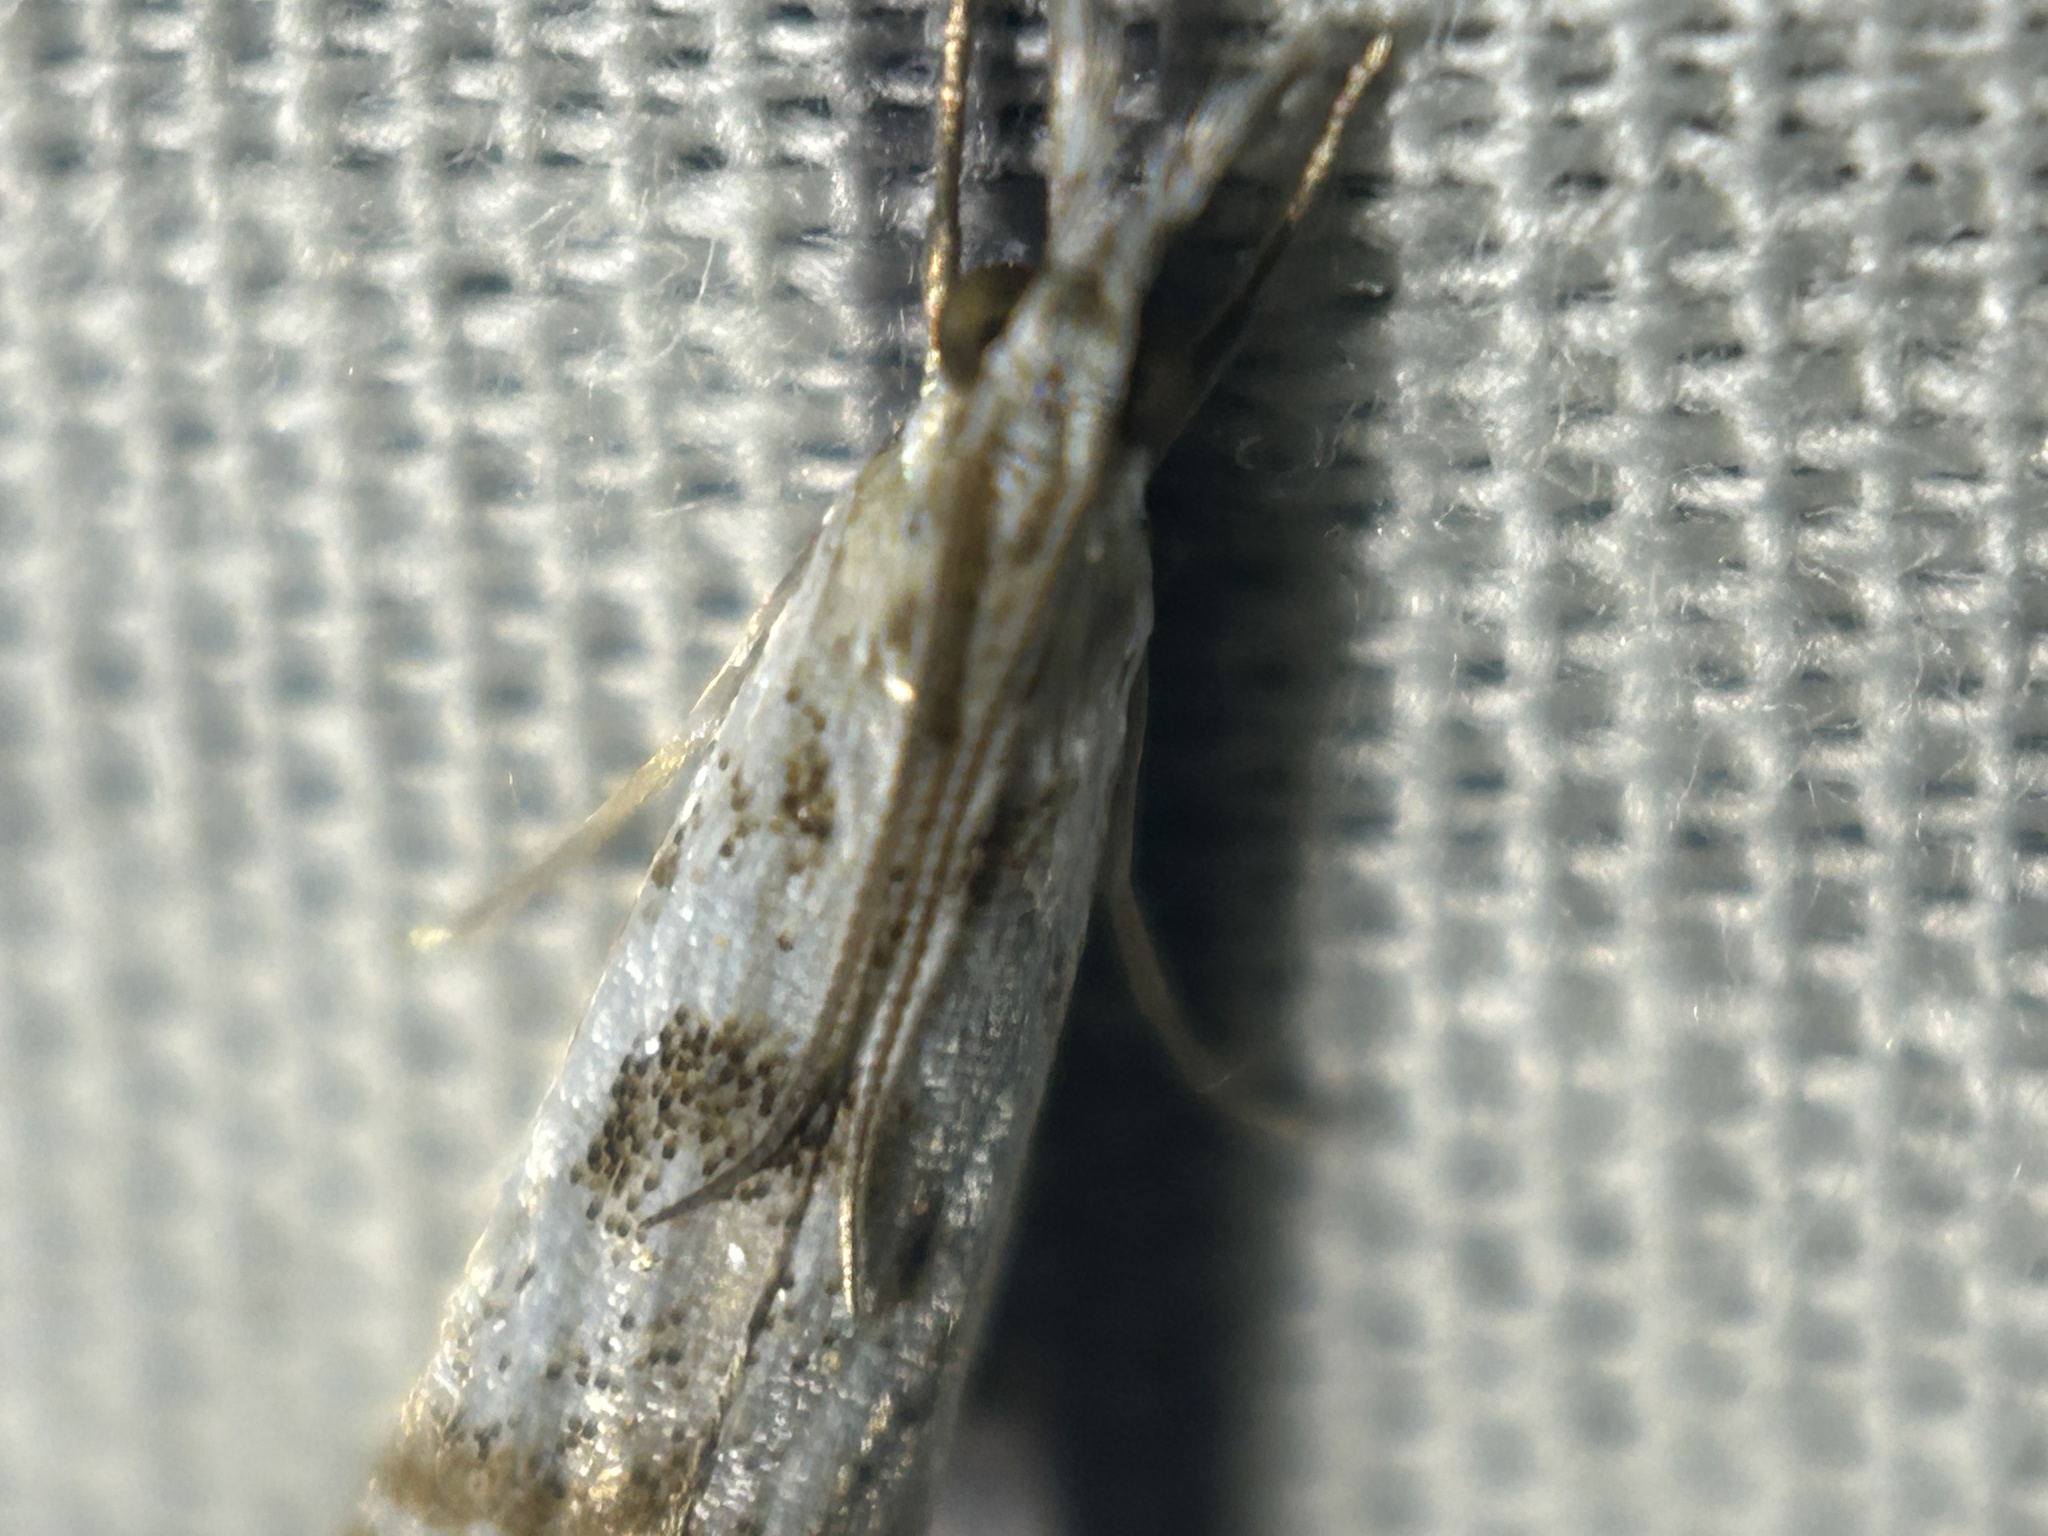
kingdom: Animalia
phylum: Arthropoda
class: Insecta
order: Lepidoptera
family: Crambidae
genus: Microcrambus
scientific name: Microcrambus elegans
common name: Elegant grass-veneer
